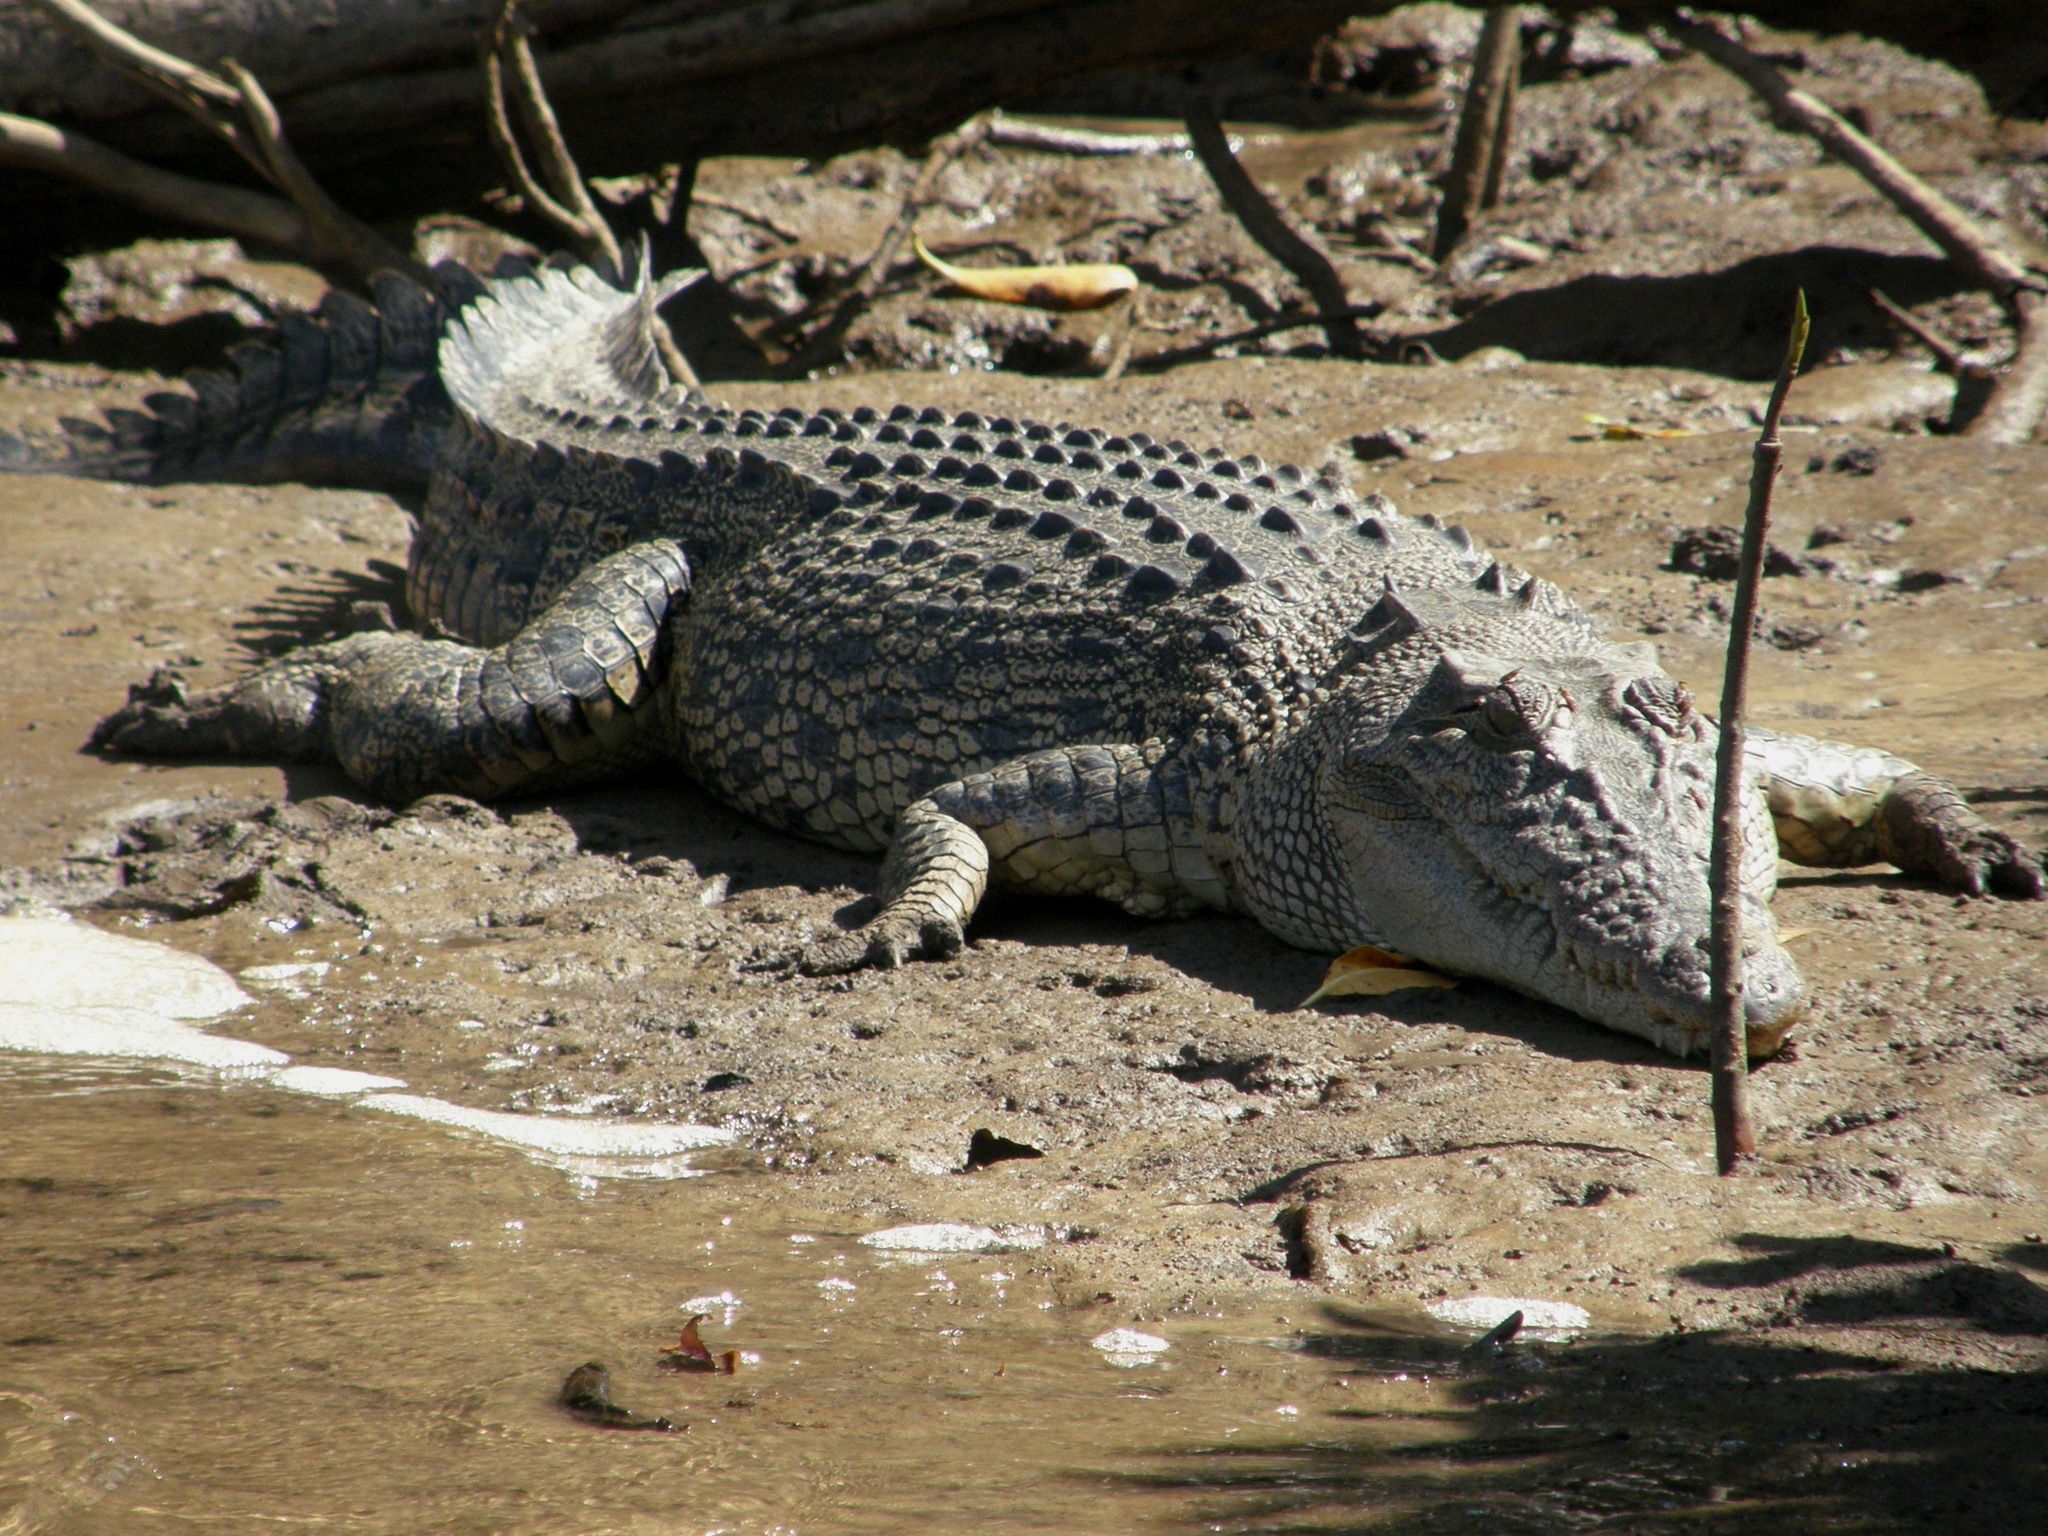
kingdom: Animalia
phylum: Chordata
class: Crocodylia
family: Crocodylidae
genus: Crocodylus
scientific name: Crocodylus porosus
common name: Saltwater crocodile
